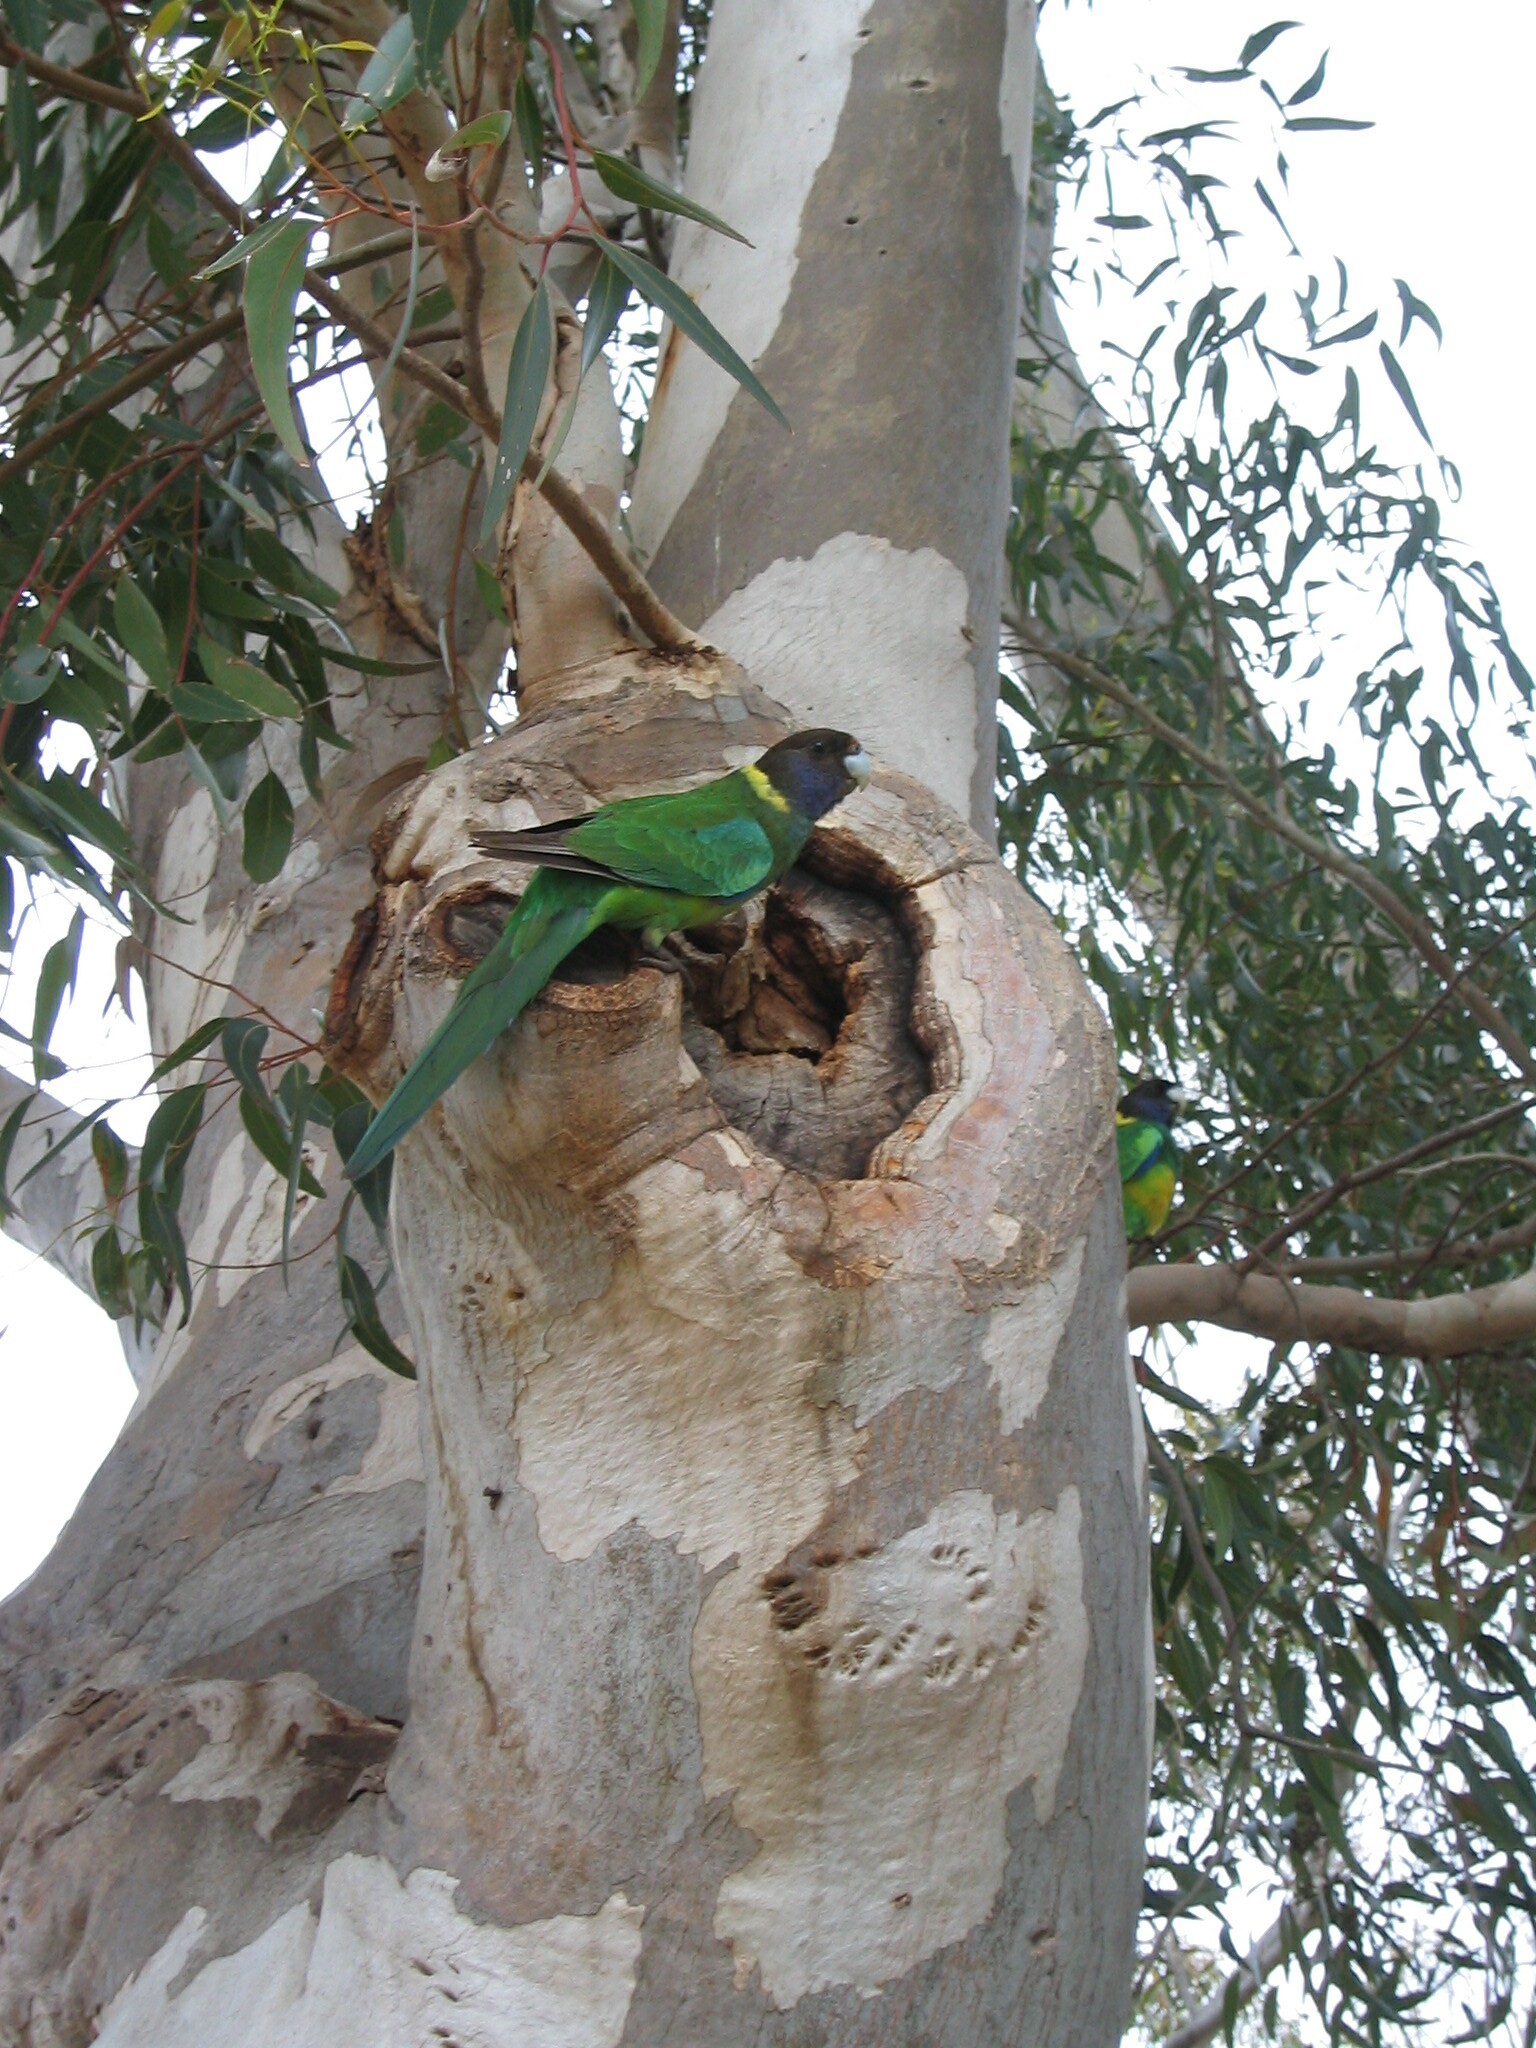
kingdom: Animalia
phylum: Chordata
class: Aves
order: Psittaciformes
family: Psittacidae
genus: Barnardius
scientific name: Barnardius zonarius
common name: Australian ringneck
